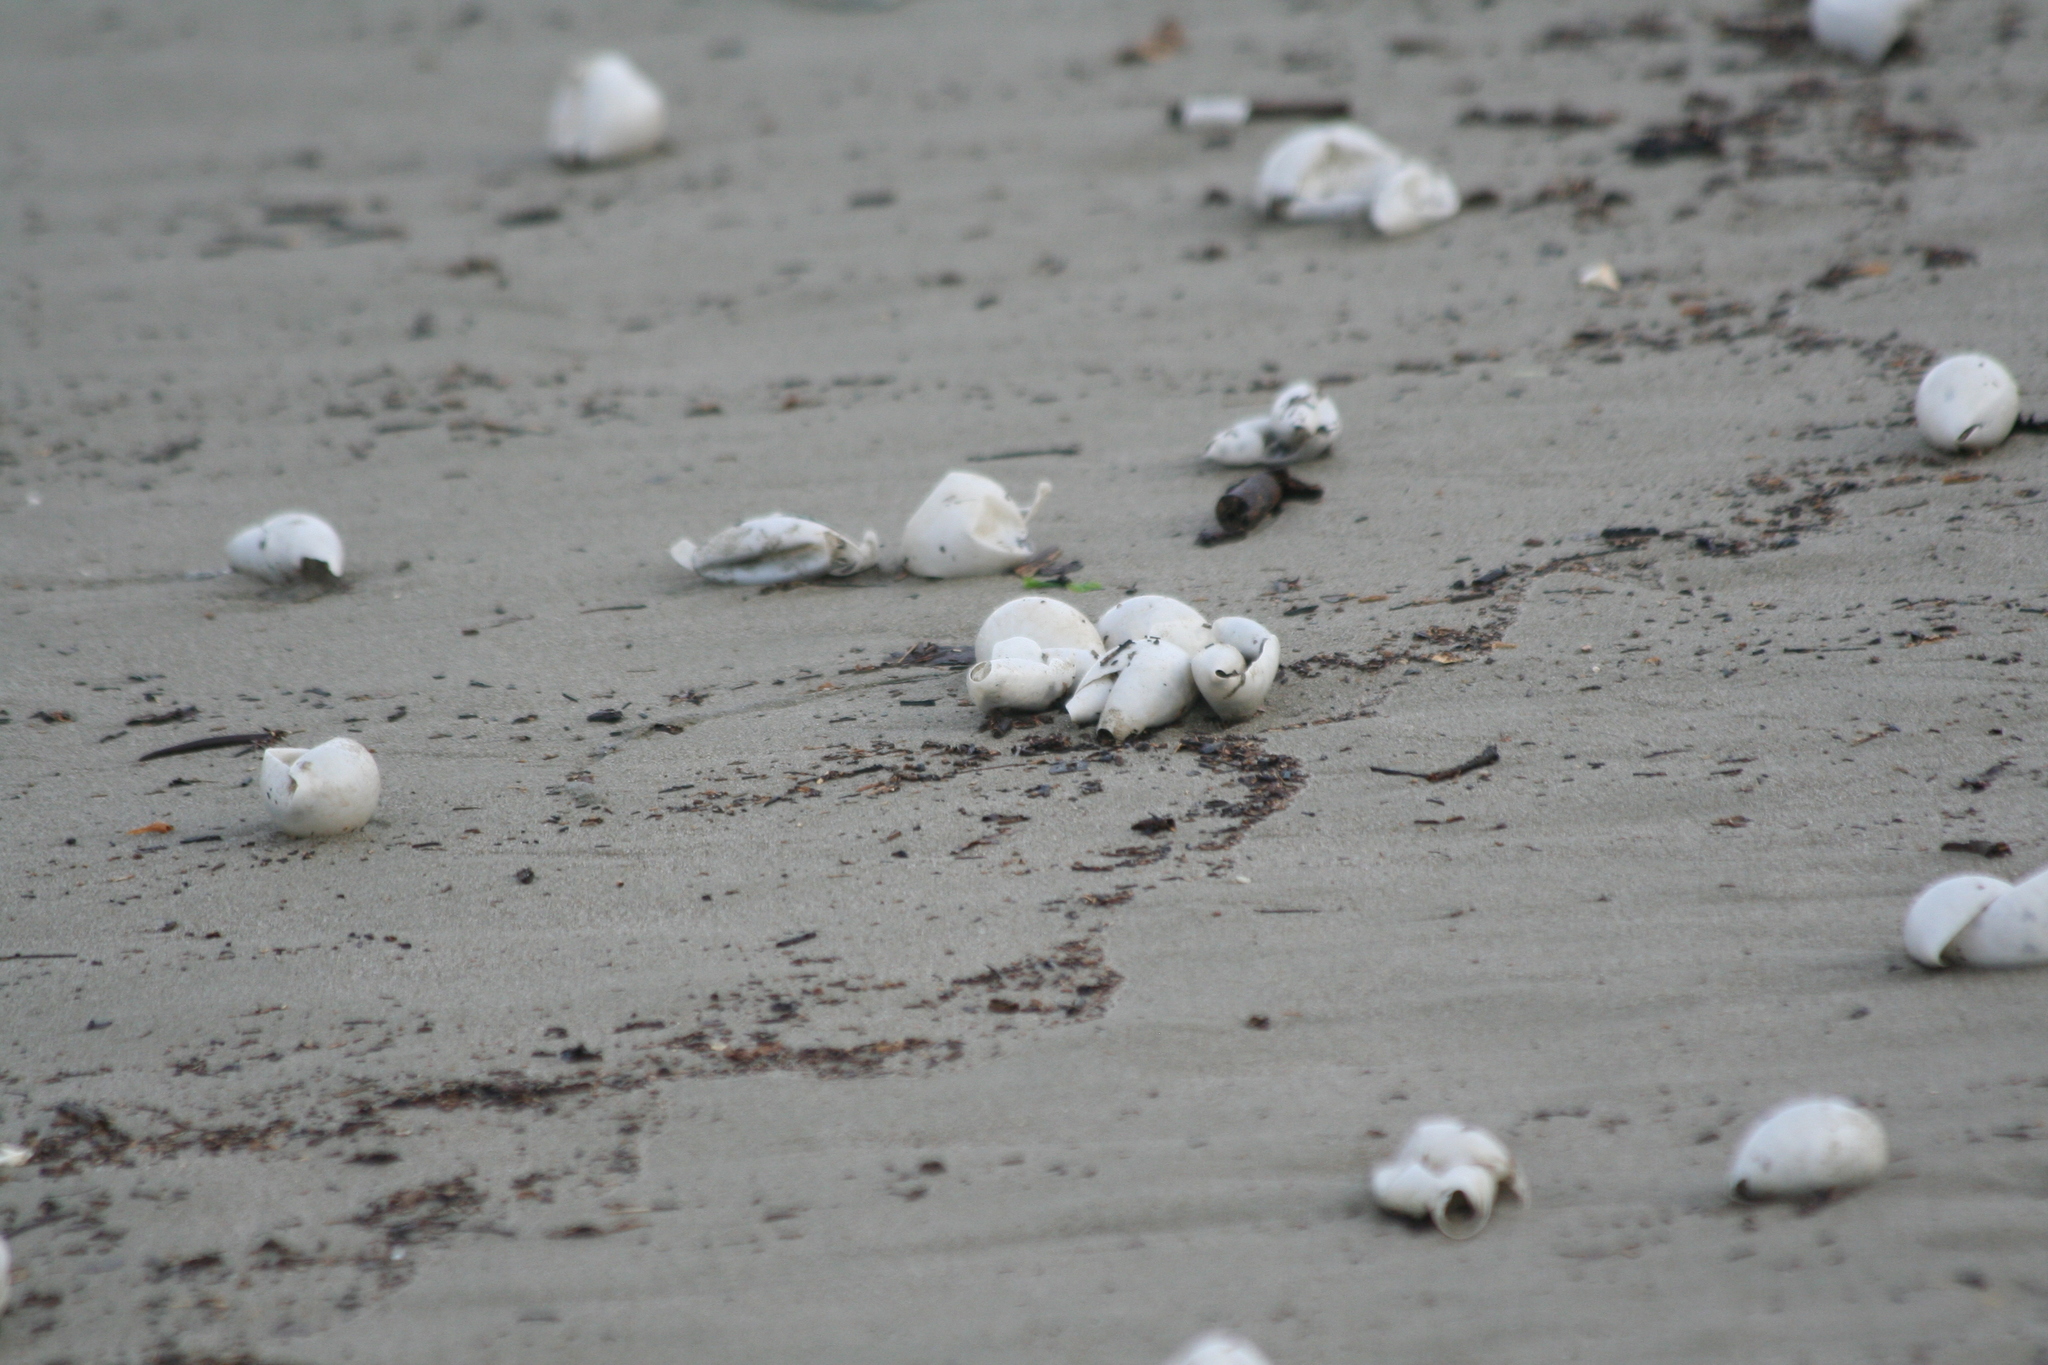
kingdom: Animalia
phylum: Chordata
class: Testudines
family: Cheloniidae
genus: Lepidochelys
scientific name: Lepidochelys olivacea
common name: Olive ridley
